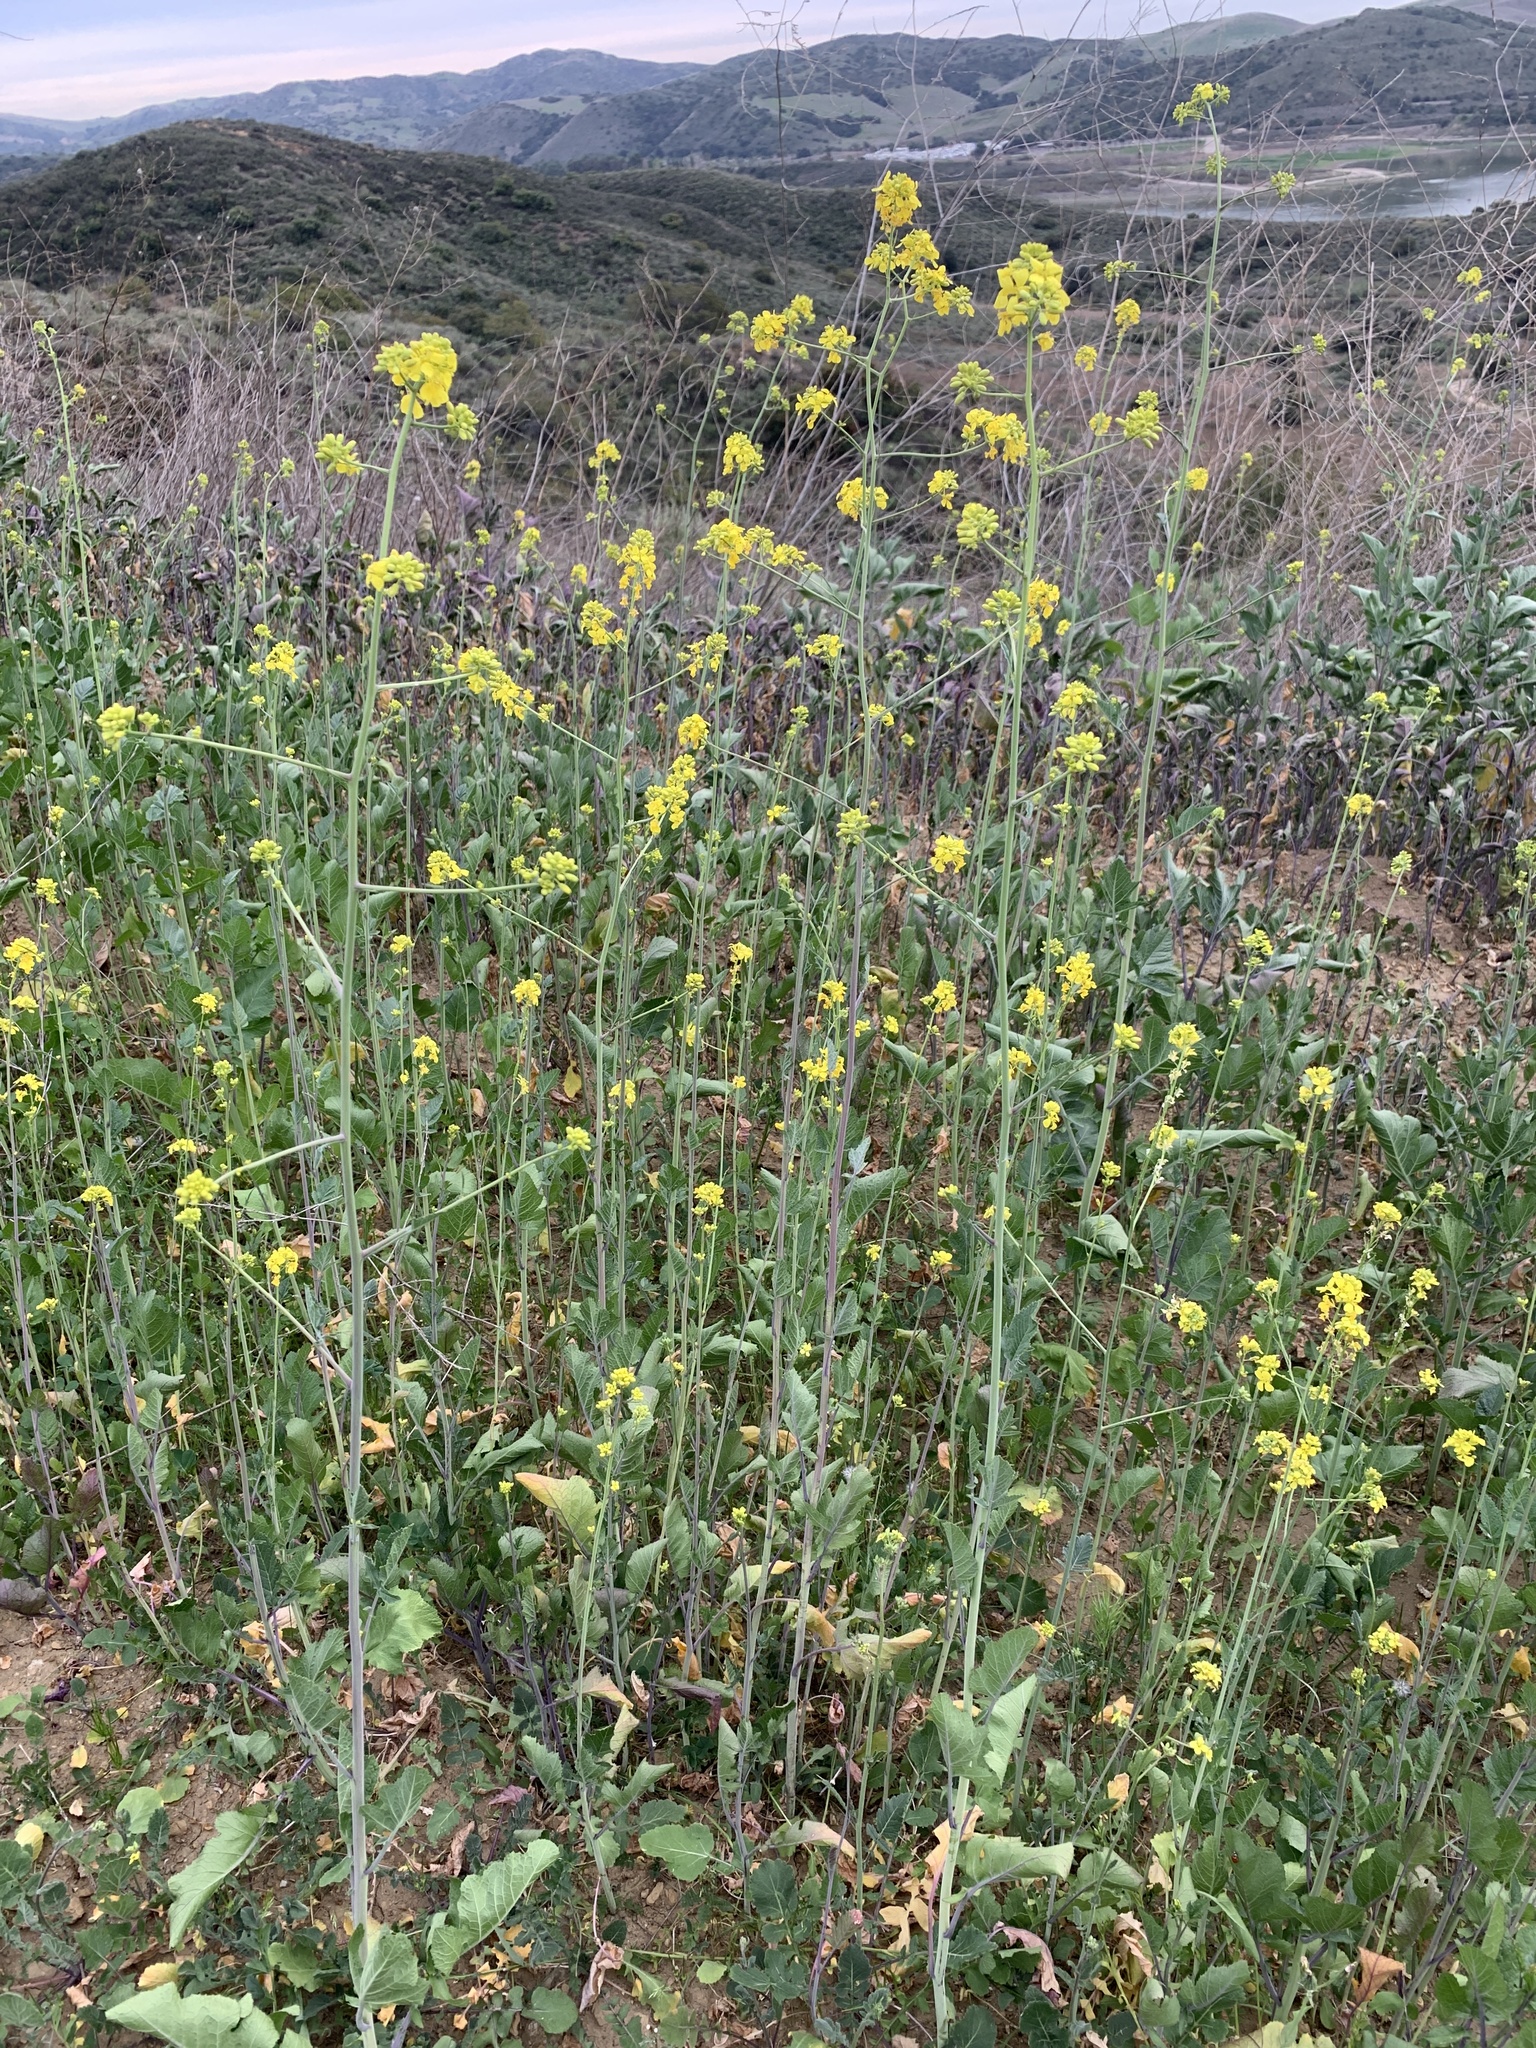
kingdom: Plantae
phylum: Tracheophyta
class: Magnoliopsida
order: Brassicales
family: Brassicaceae
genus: Brassica
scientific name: Brassica nigra
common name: Black mustard
